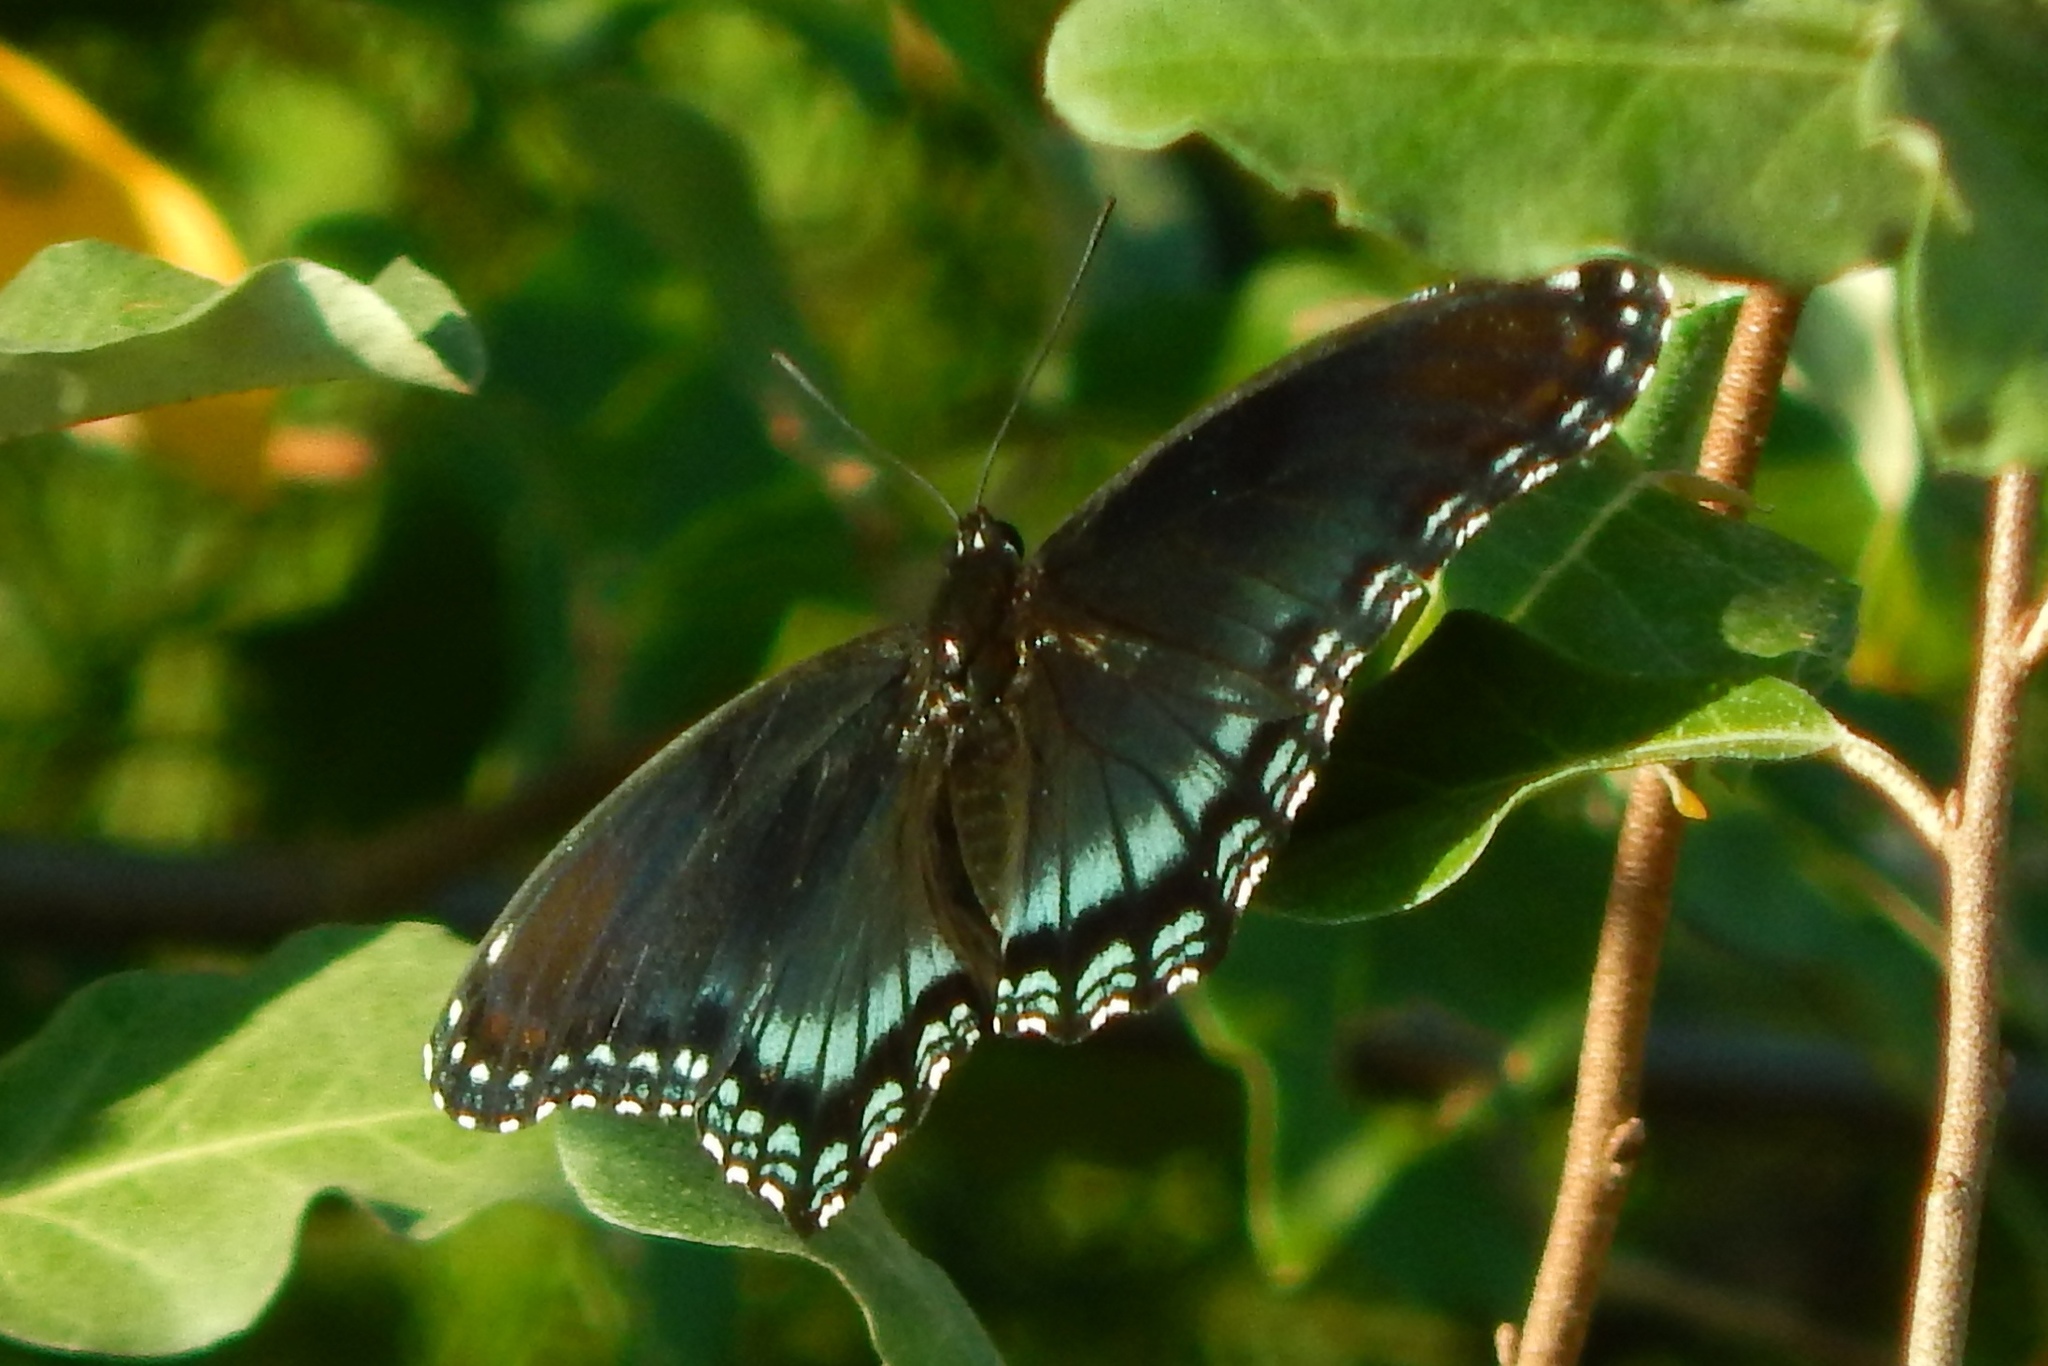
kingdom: Animalia
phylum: Arthropoda
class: Insecta
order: Lepidoptera
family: Nymphalidae
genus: Limenitis
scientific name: Limenitis arthemis
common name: Red-spotted admiral
